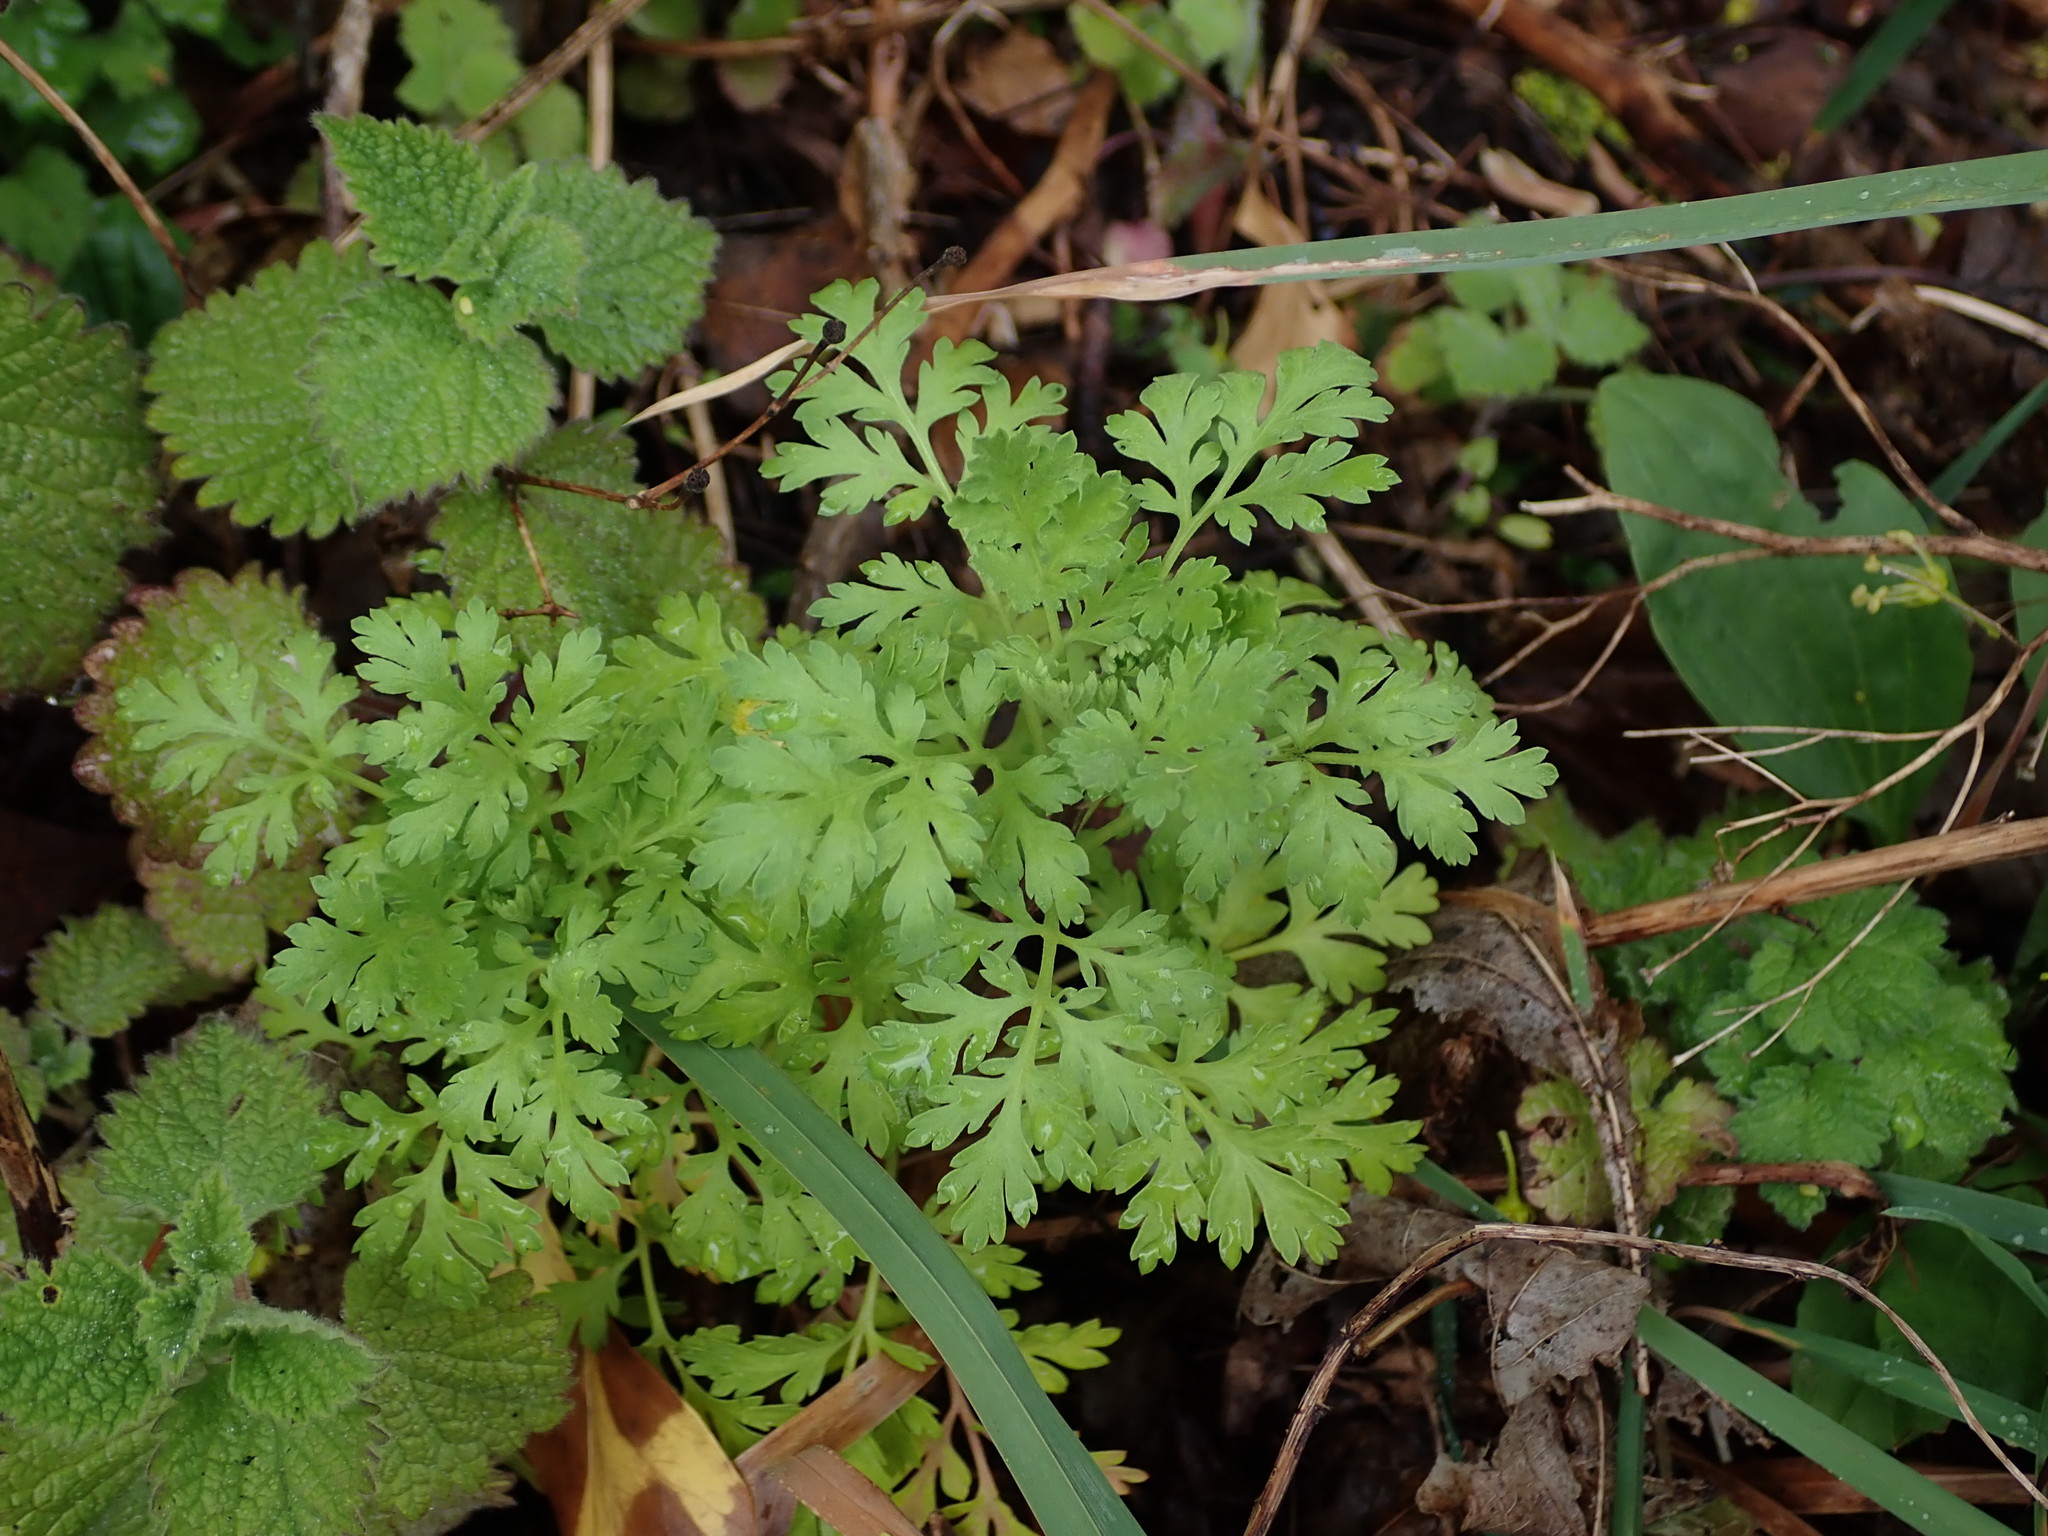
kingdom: Plantae
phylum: Tracheophyta
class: Magnoliopsida
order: Asterales
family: Asteraceae
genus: Tanacetum
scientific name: Tanacetum parthenium
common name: Feverfew
